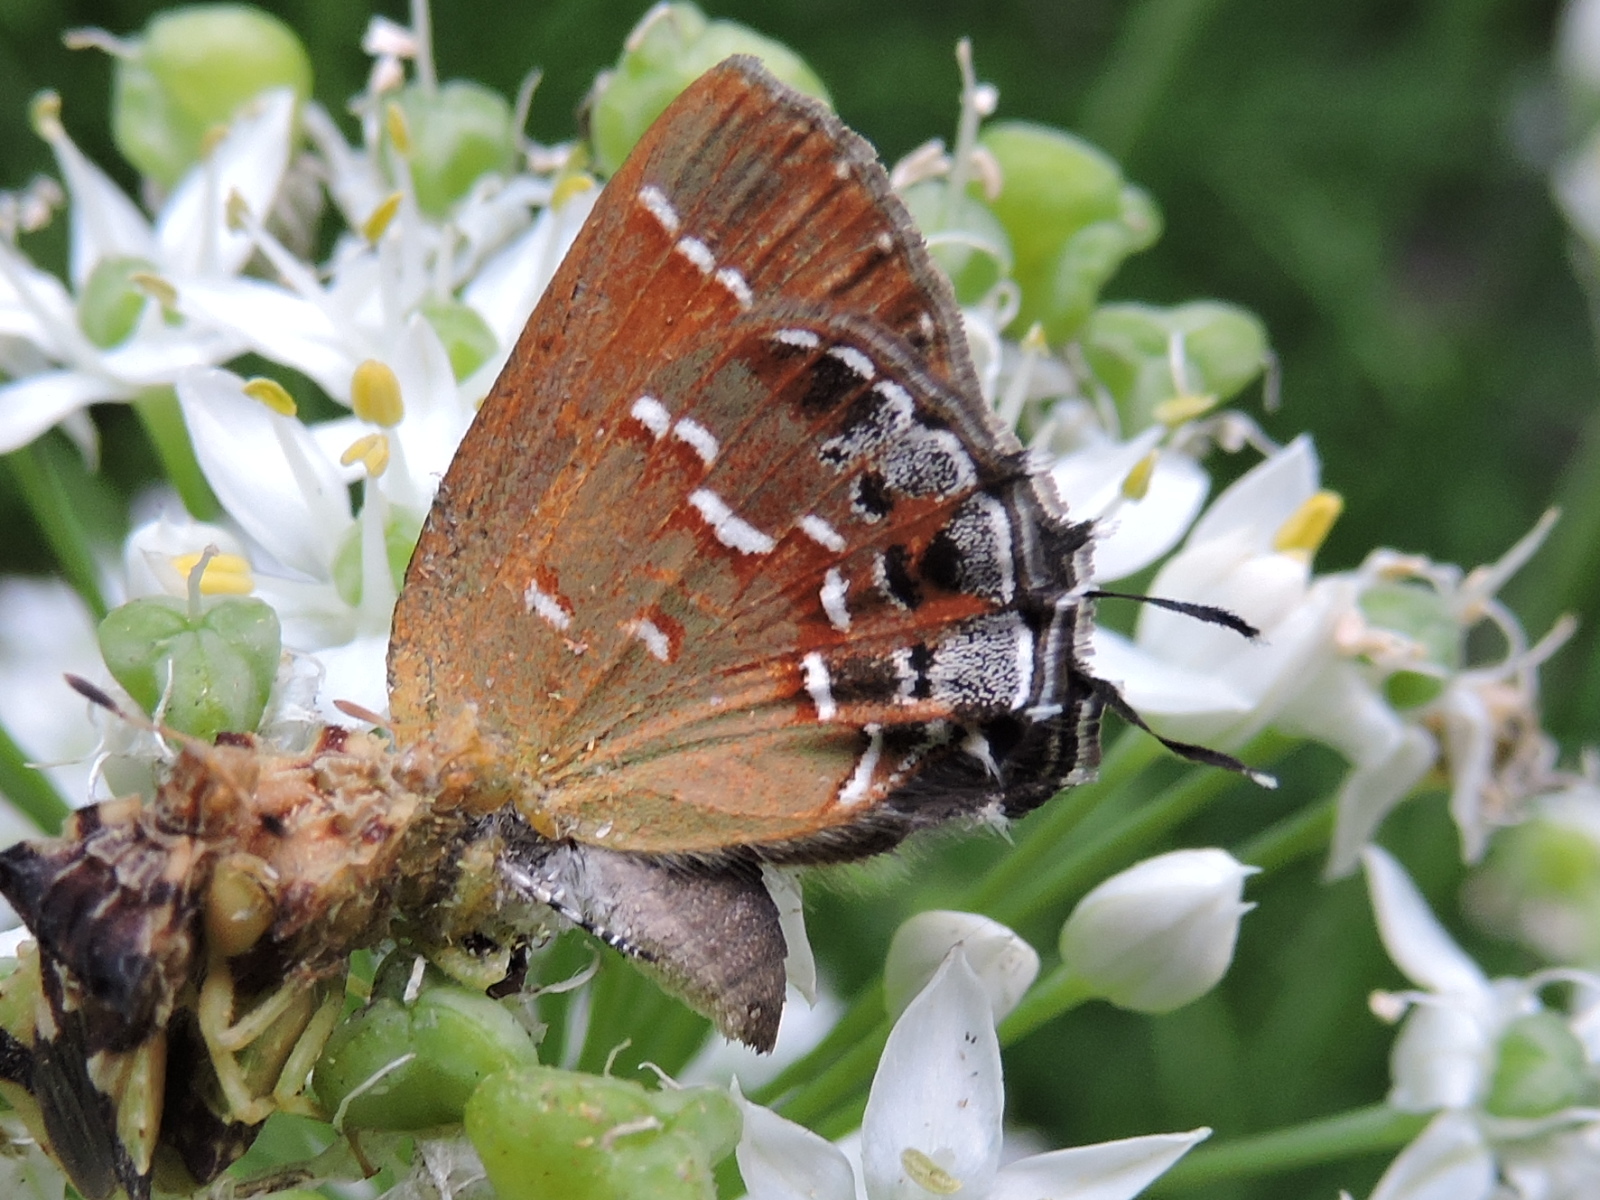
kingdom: Animalia
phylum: Arthropoda
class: Insecta
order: Lepidoptera
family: Lycaenidae
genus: Mitoura
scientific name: Mitoura gryneus
